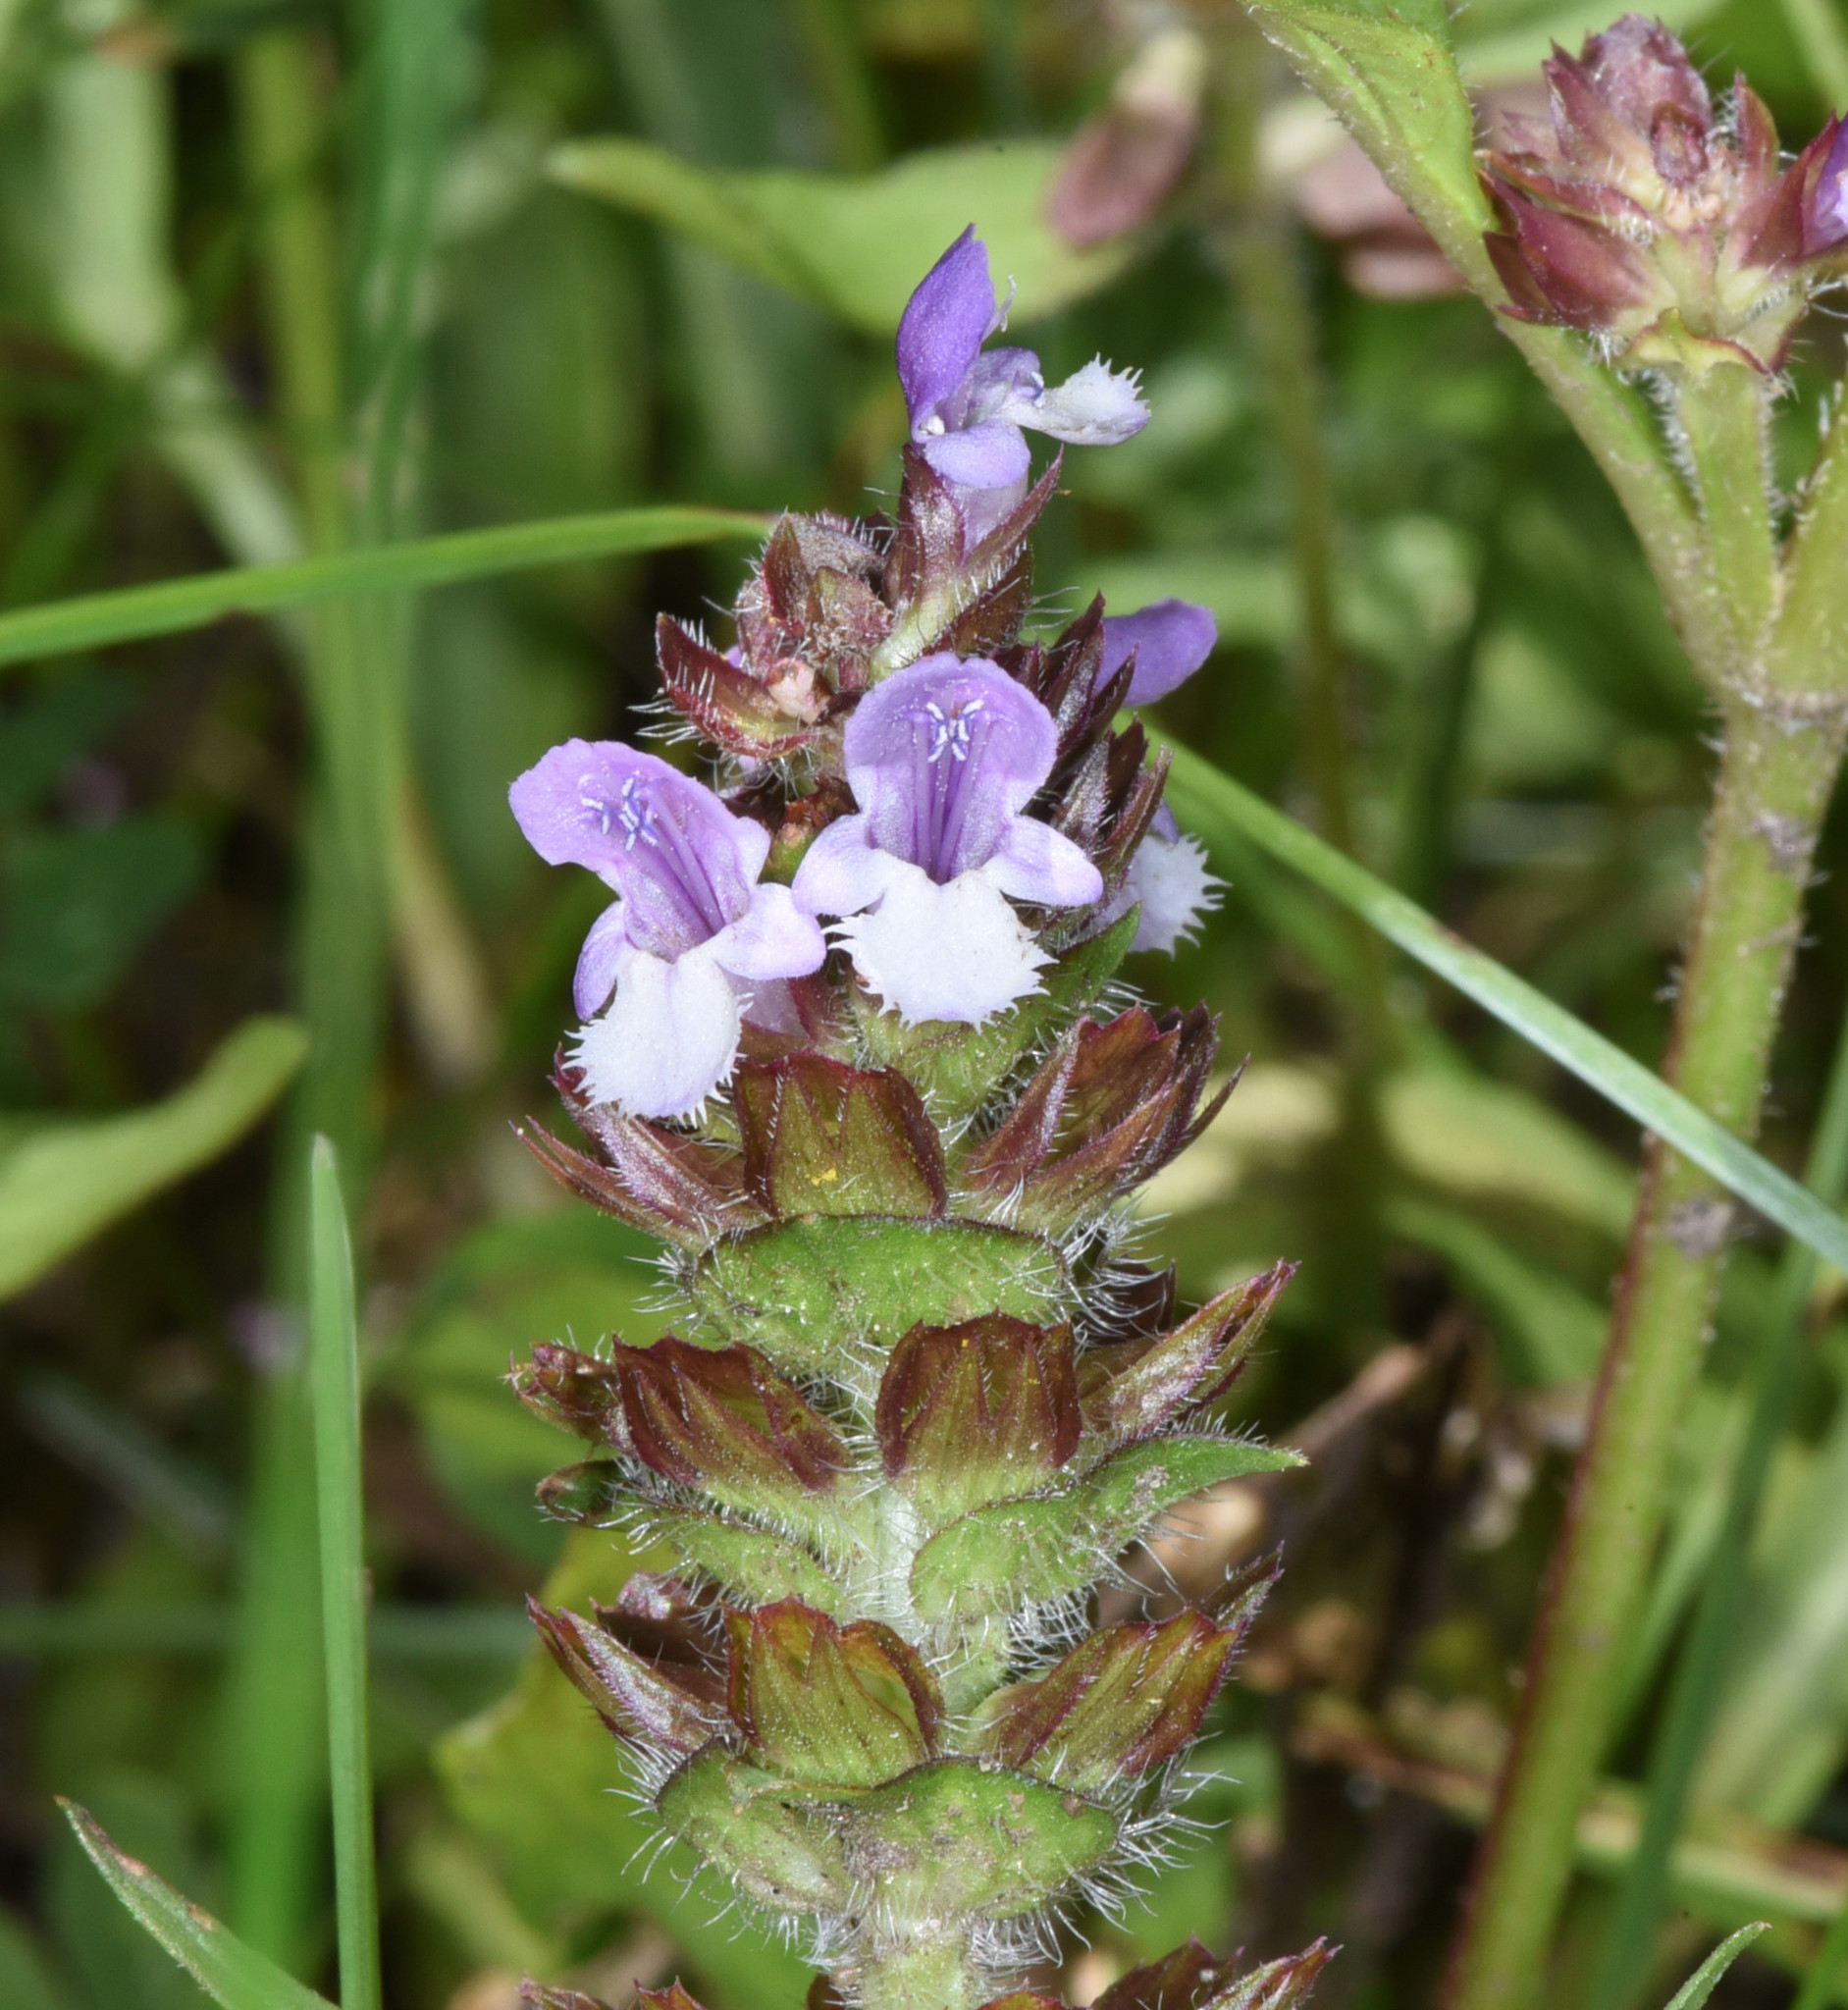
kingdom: Plantae
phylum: Tracheophyta
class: Magnoliopsida
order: Lamiales
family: Lamiaceae
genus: Prunella
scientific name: Prunella vulgaris
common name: Heal-all
